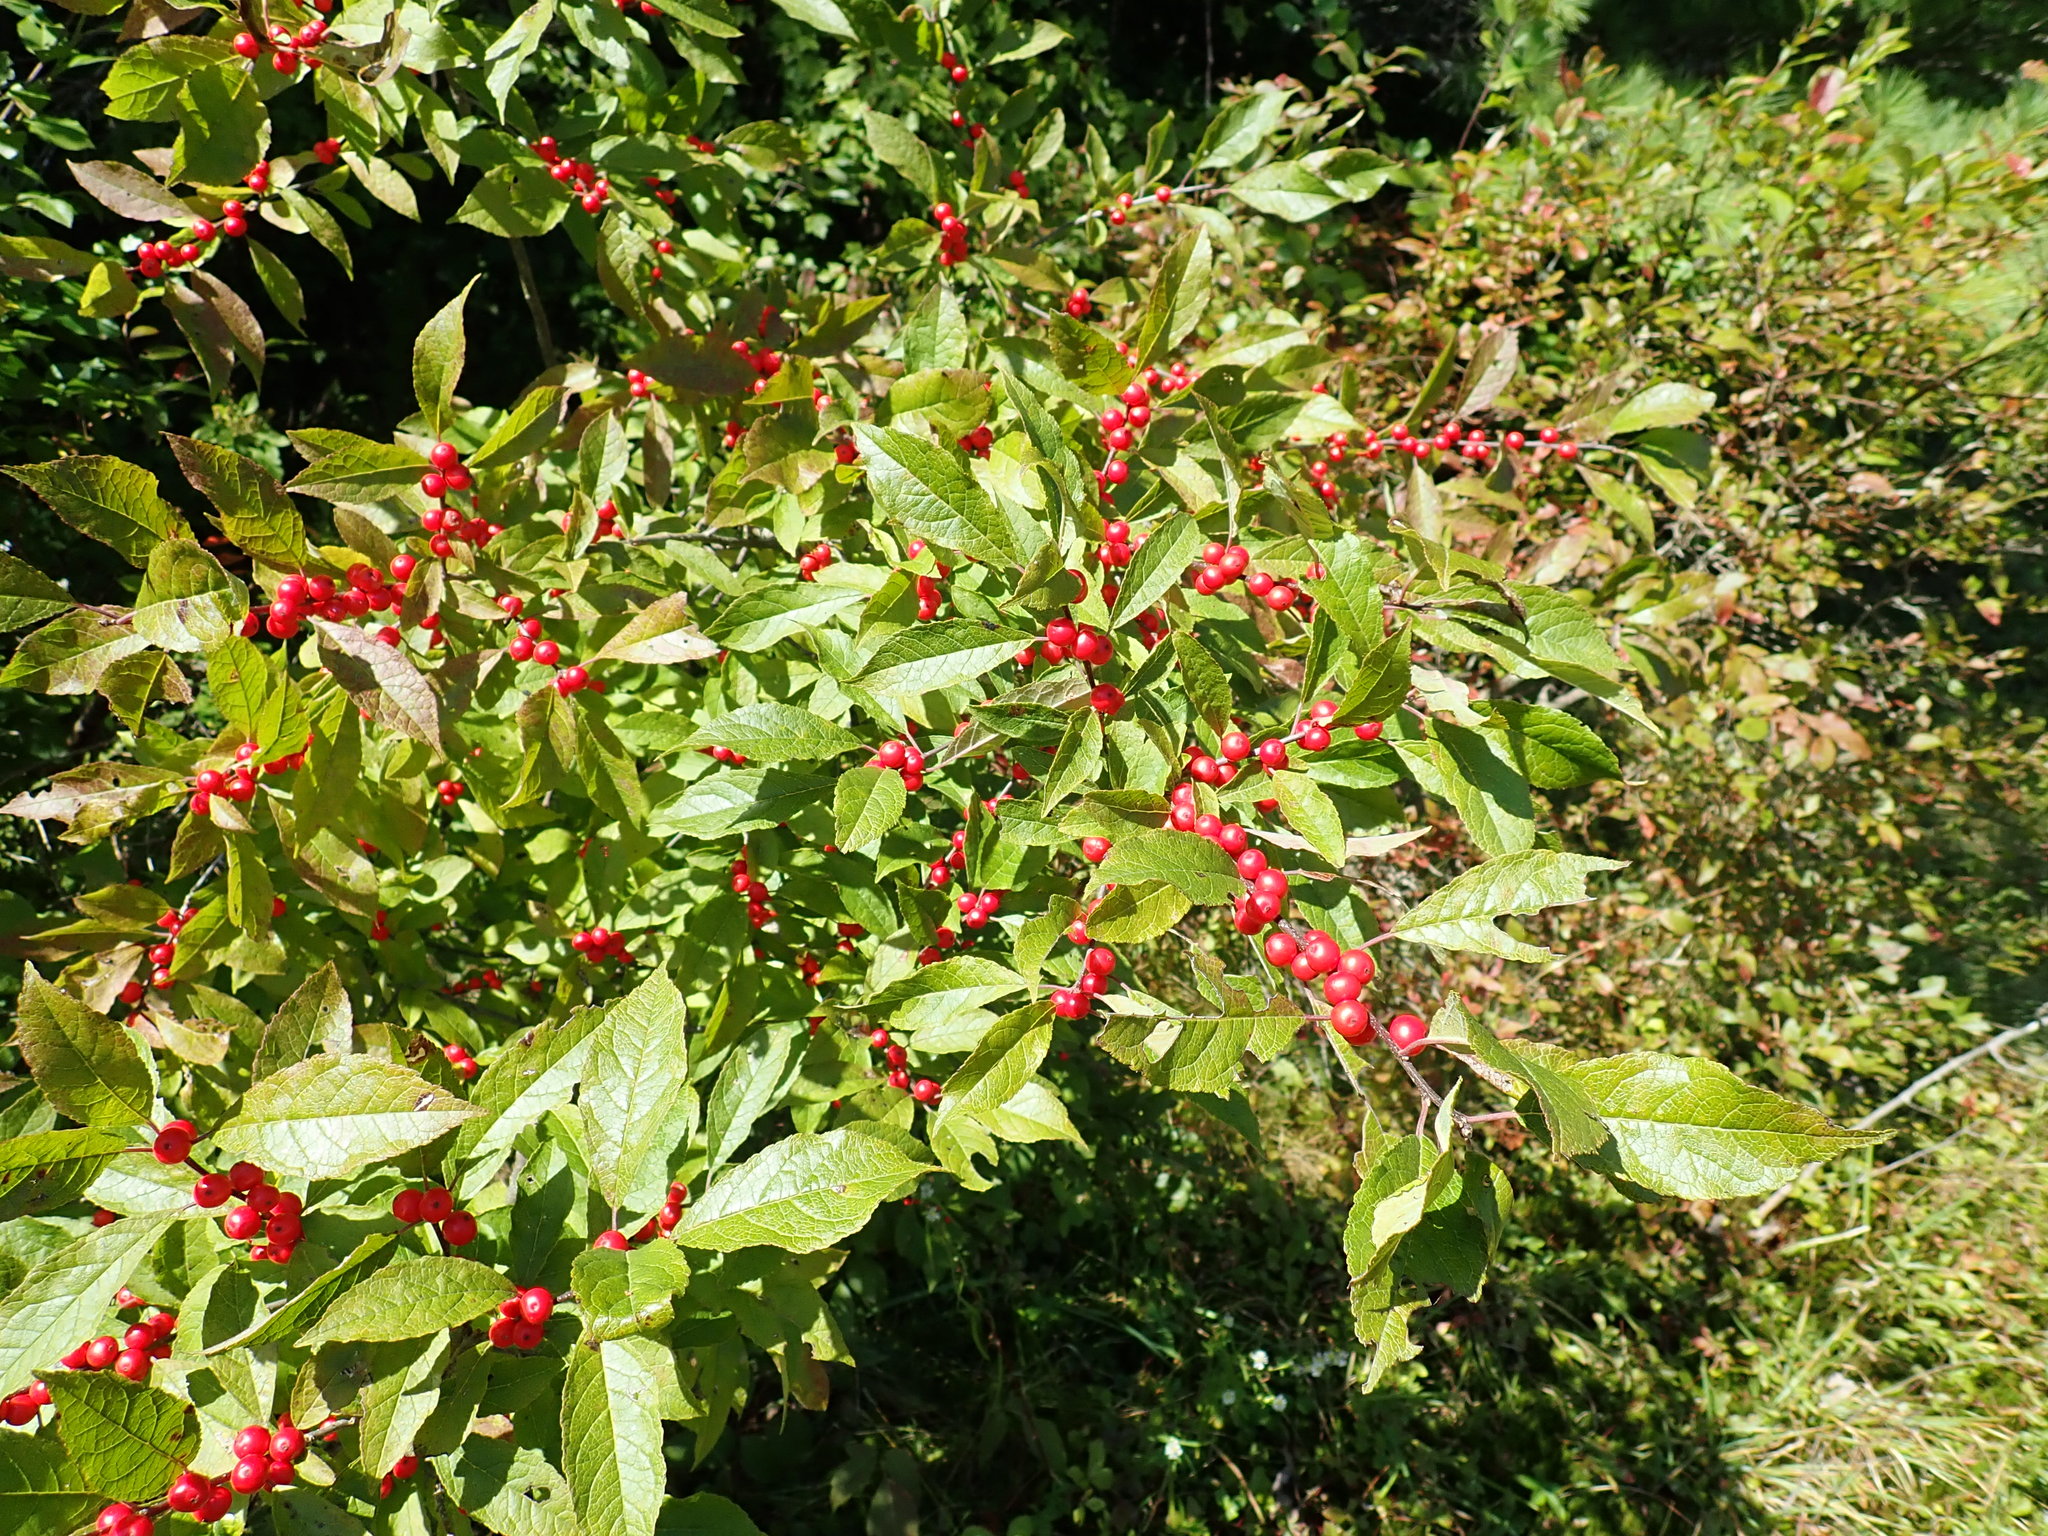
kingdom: Plantae
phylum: Tracheophyta
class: Magnoliopsida
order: Aquifoliales
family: Aquifoliaceae
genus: Ilex
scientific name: Ilex verticillata
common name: Virginia winterberry
